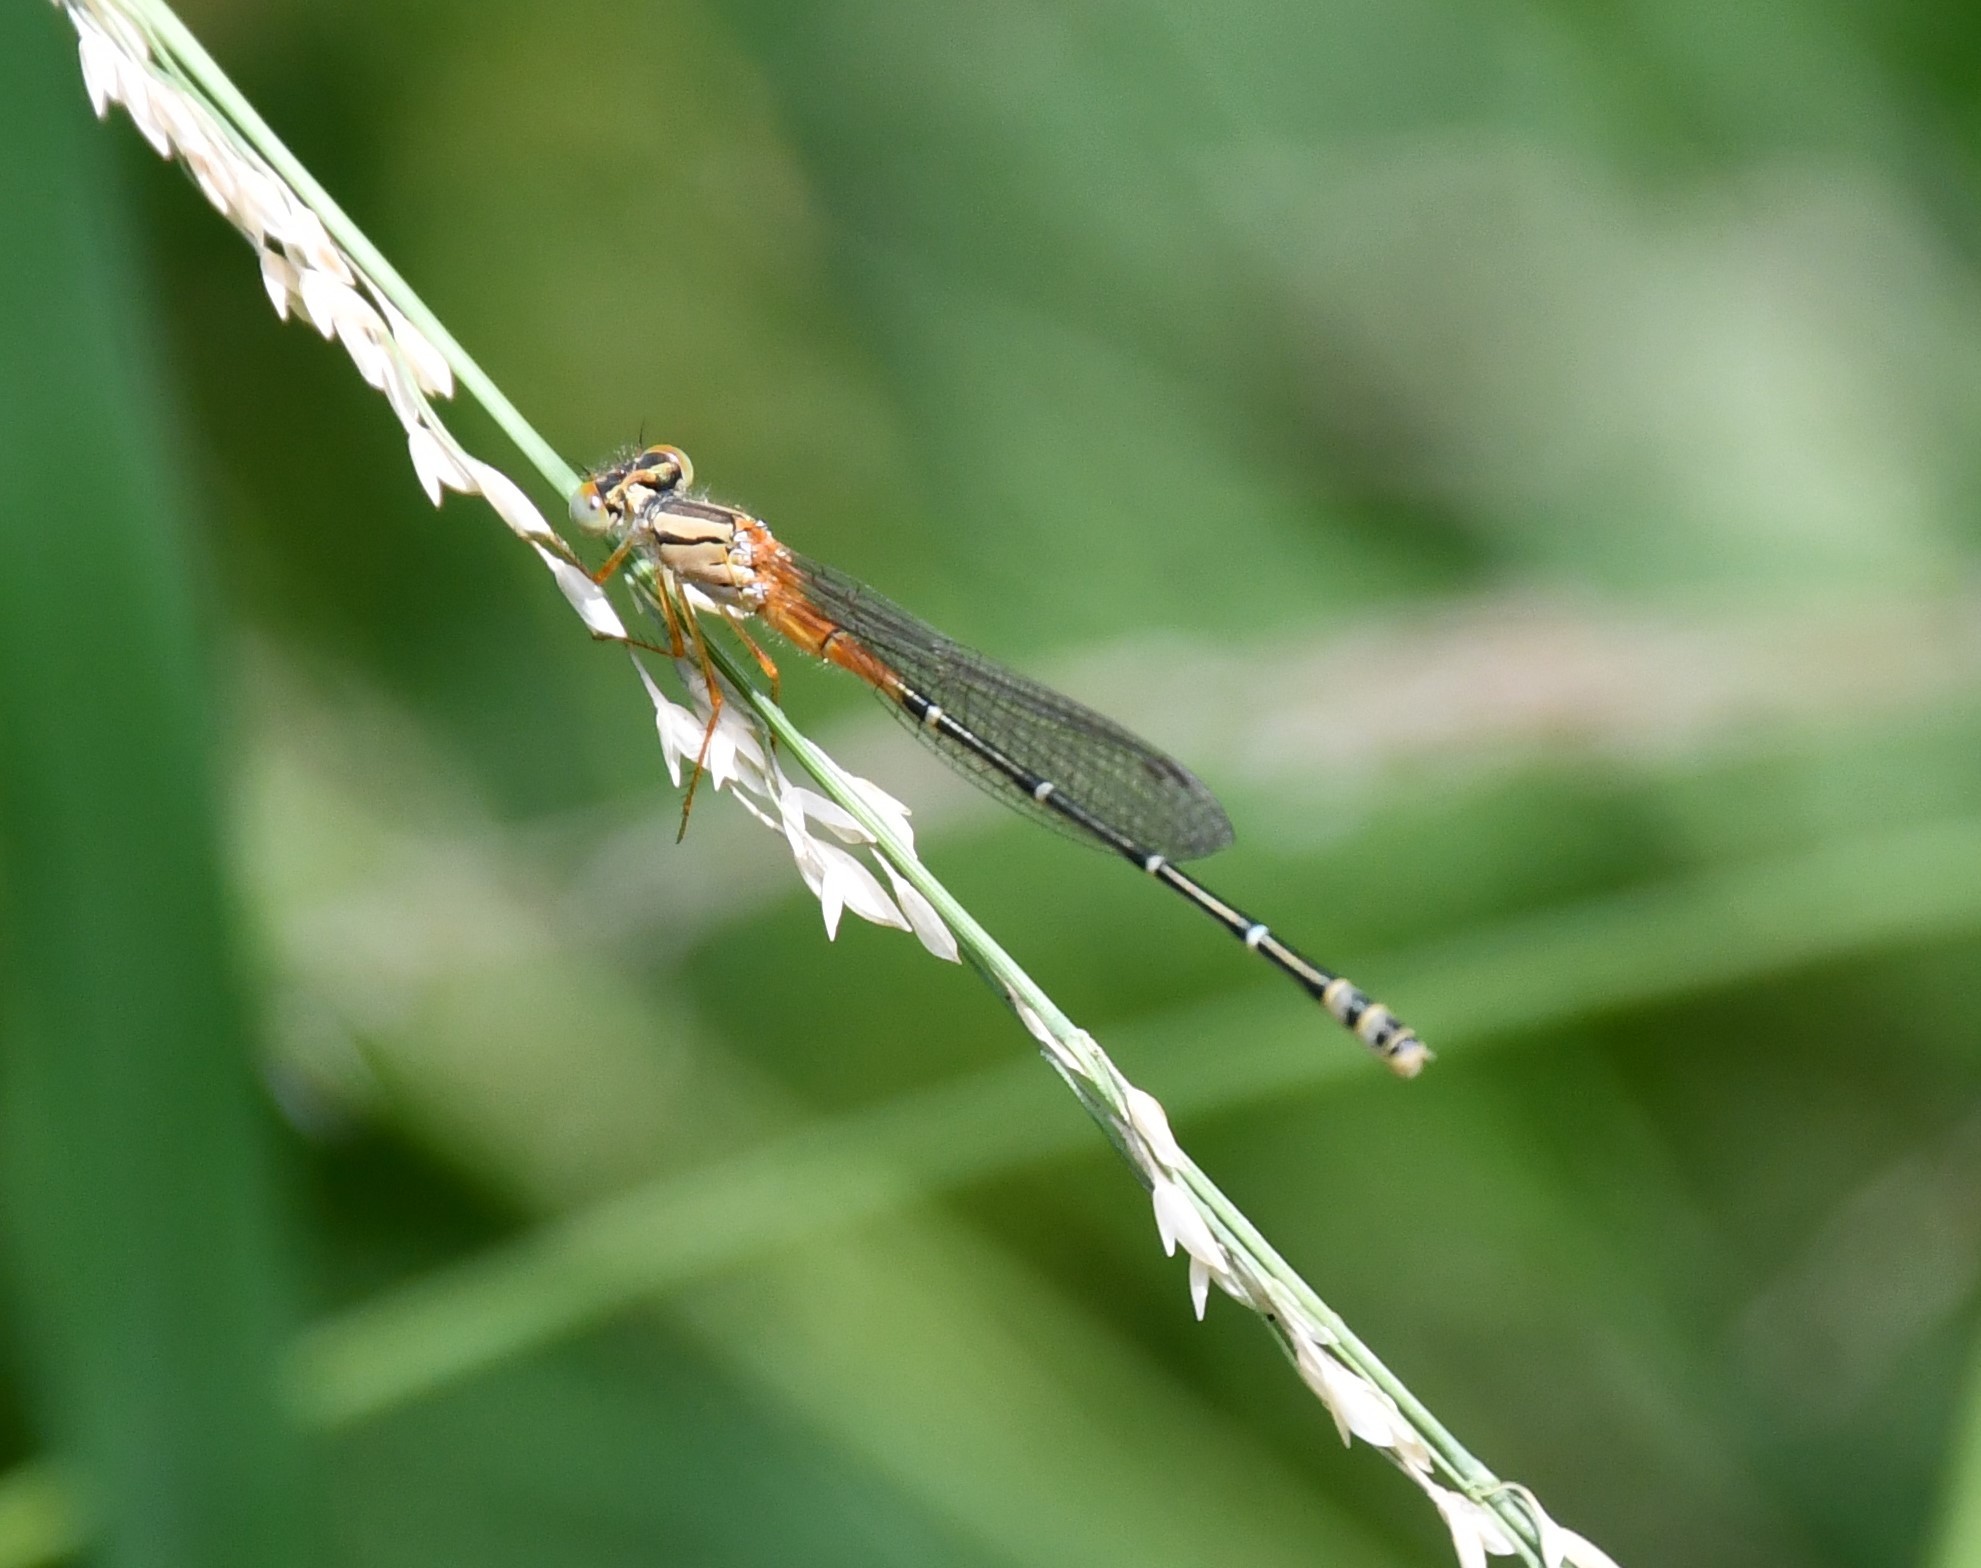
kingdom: Animalia
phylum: Arthropoda
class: Insecta
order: Odonata
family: Coenagrionidae
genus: Xanthagrion
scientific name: Xanthagrion erythroneurum
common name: Red and blue damsel
